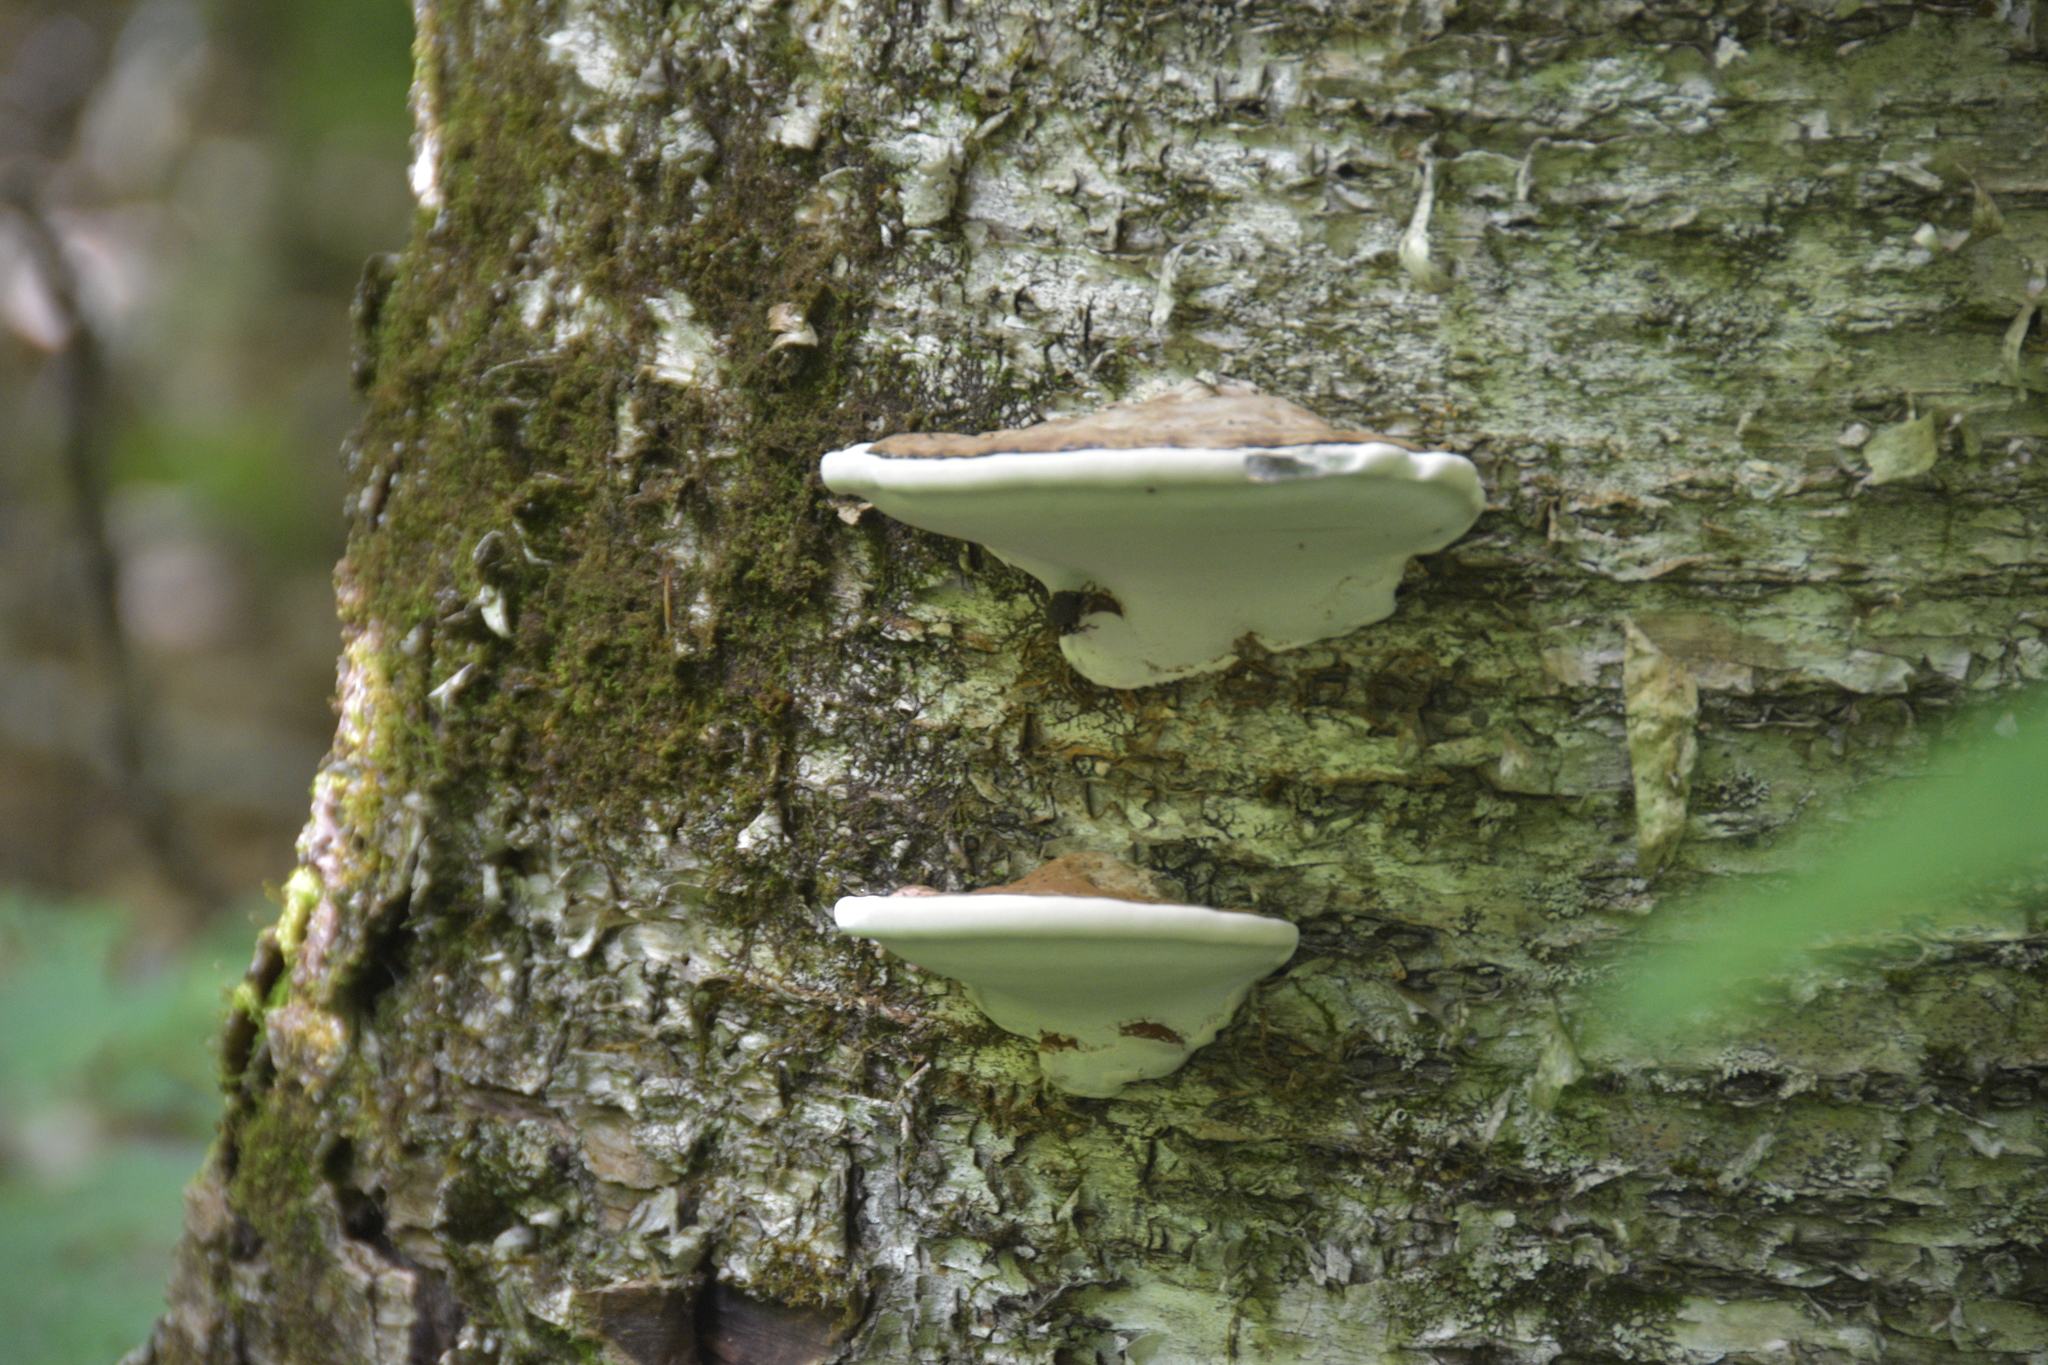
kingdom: Fungi
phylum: Basidiomycota
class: Agaricomycetes
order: Polyporales
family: Polyporaceae
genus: Ganoderma
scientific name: Ganoderma applanatum
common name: Artist's bracket
